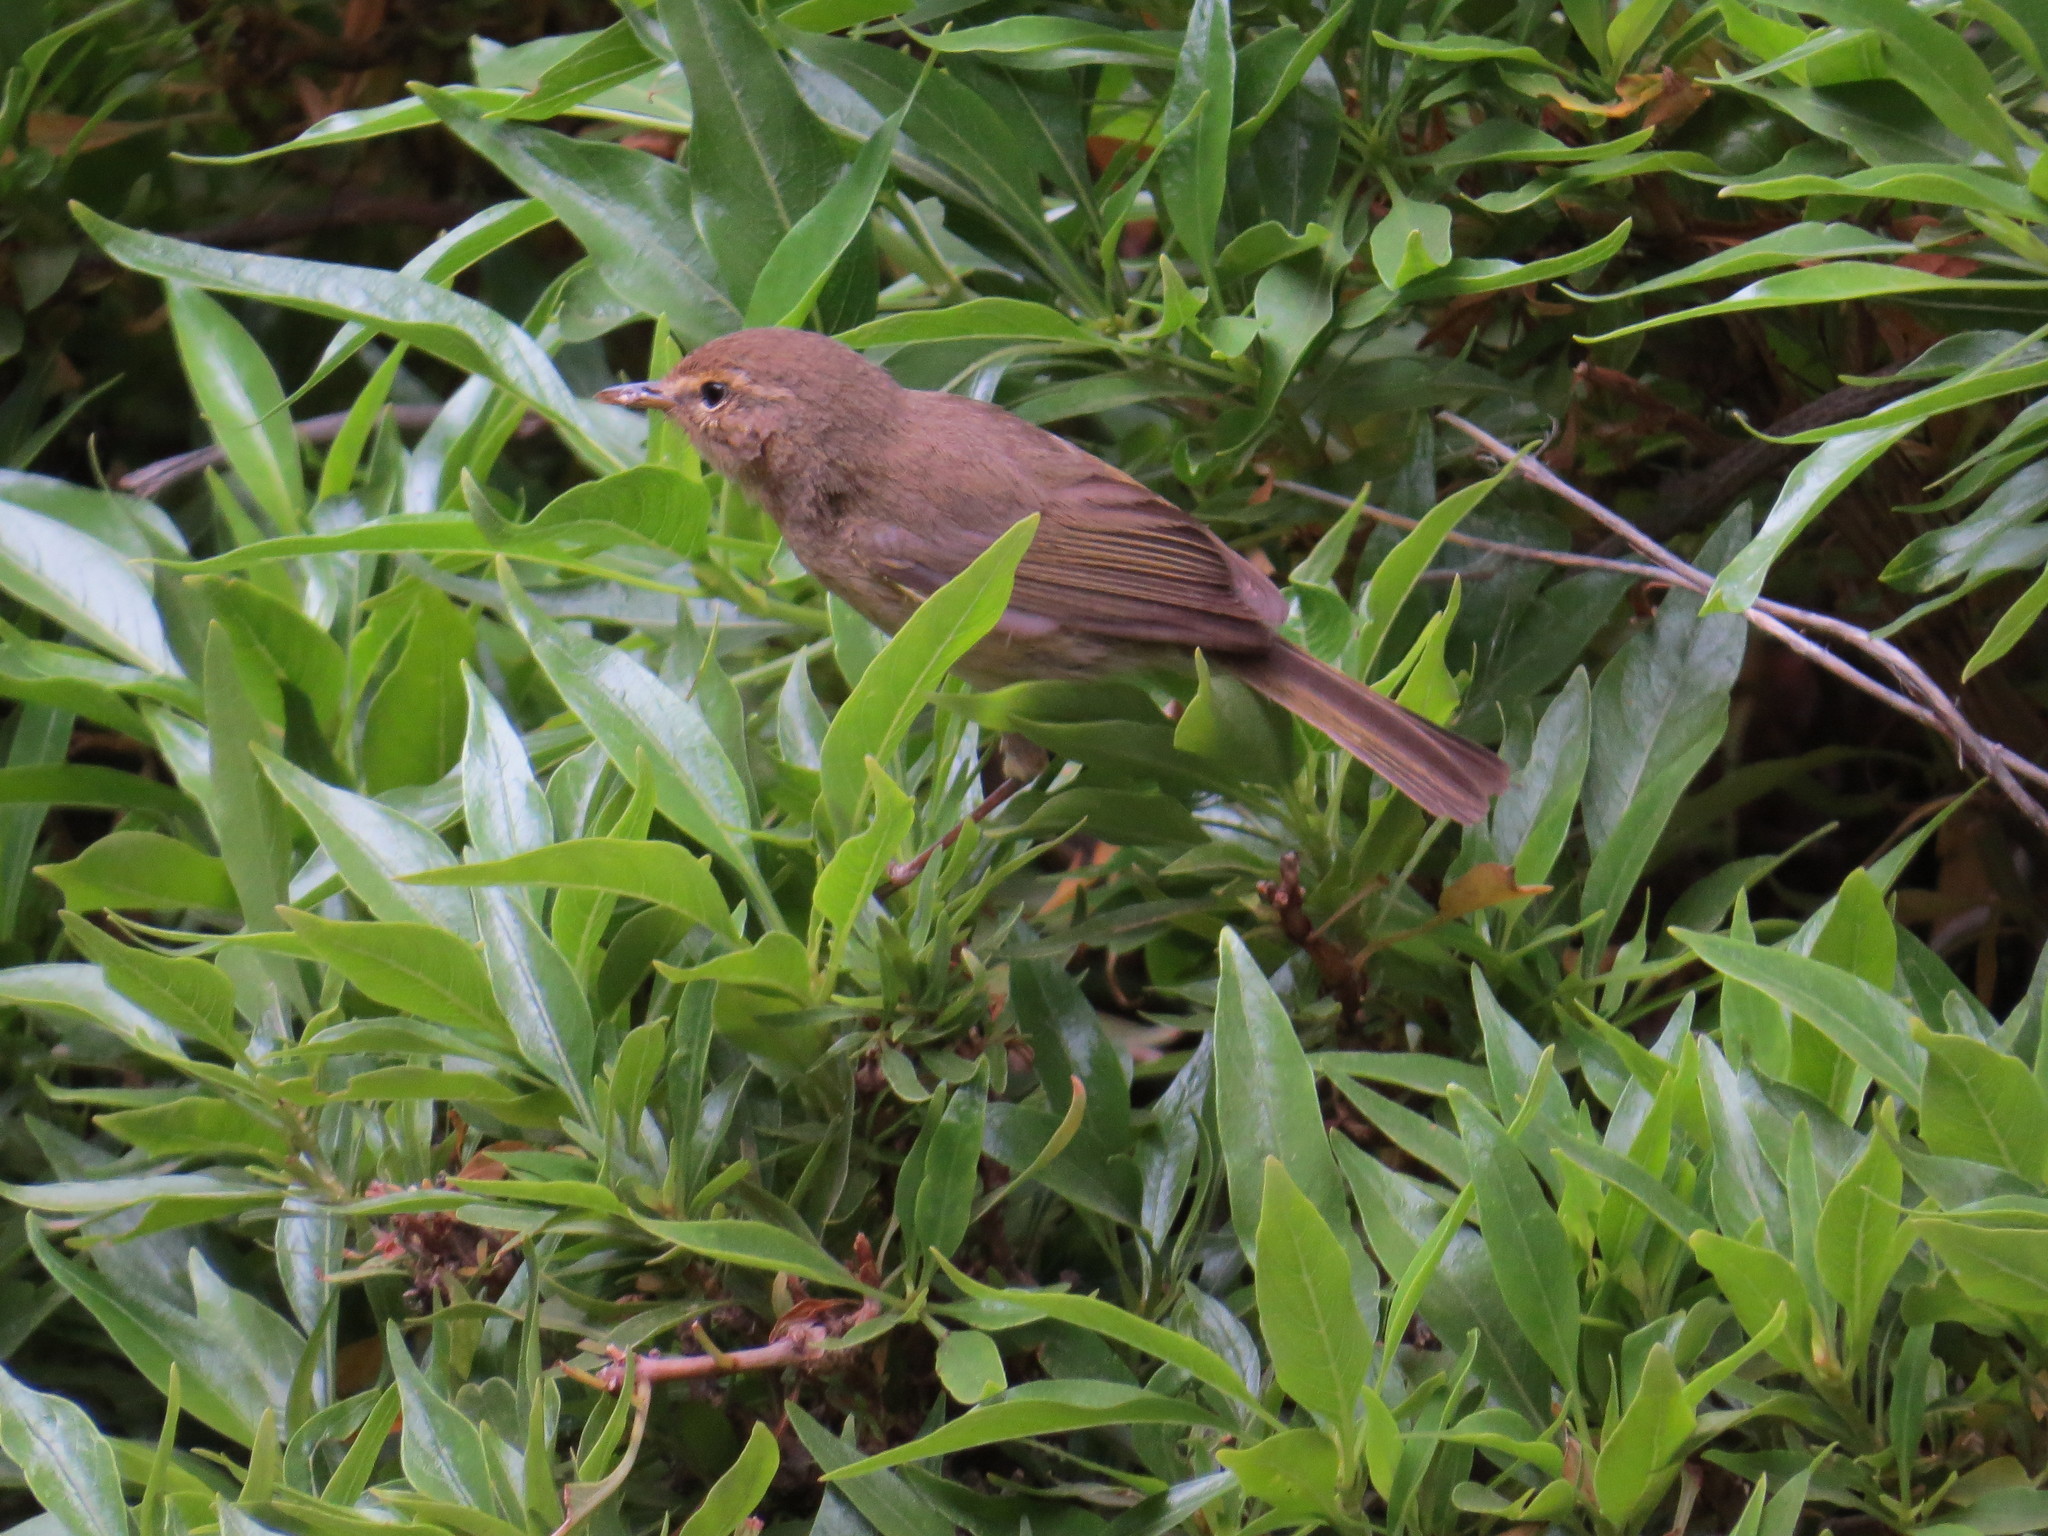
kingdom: Animalia
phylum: Chordata
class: Aves
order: Passeriformes
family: Phylloscopidae
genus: Phylloscopus
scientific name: Phylloscopus canariensis
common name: Canary islands chiffchaff
